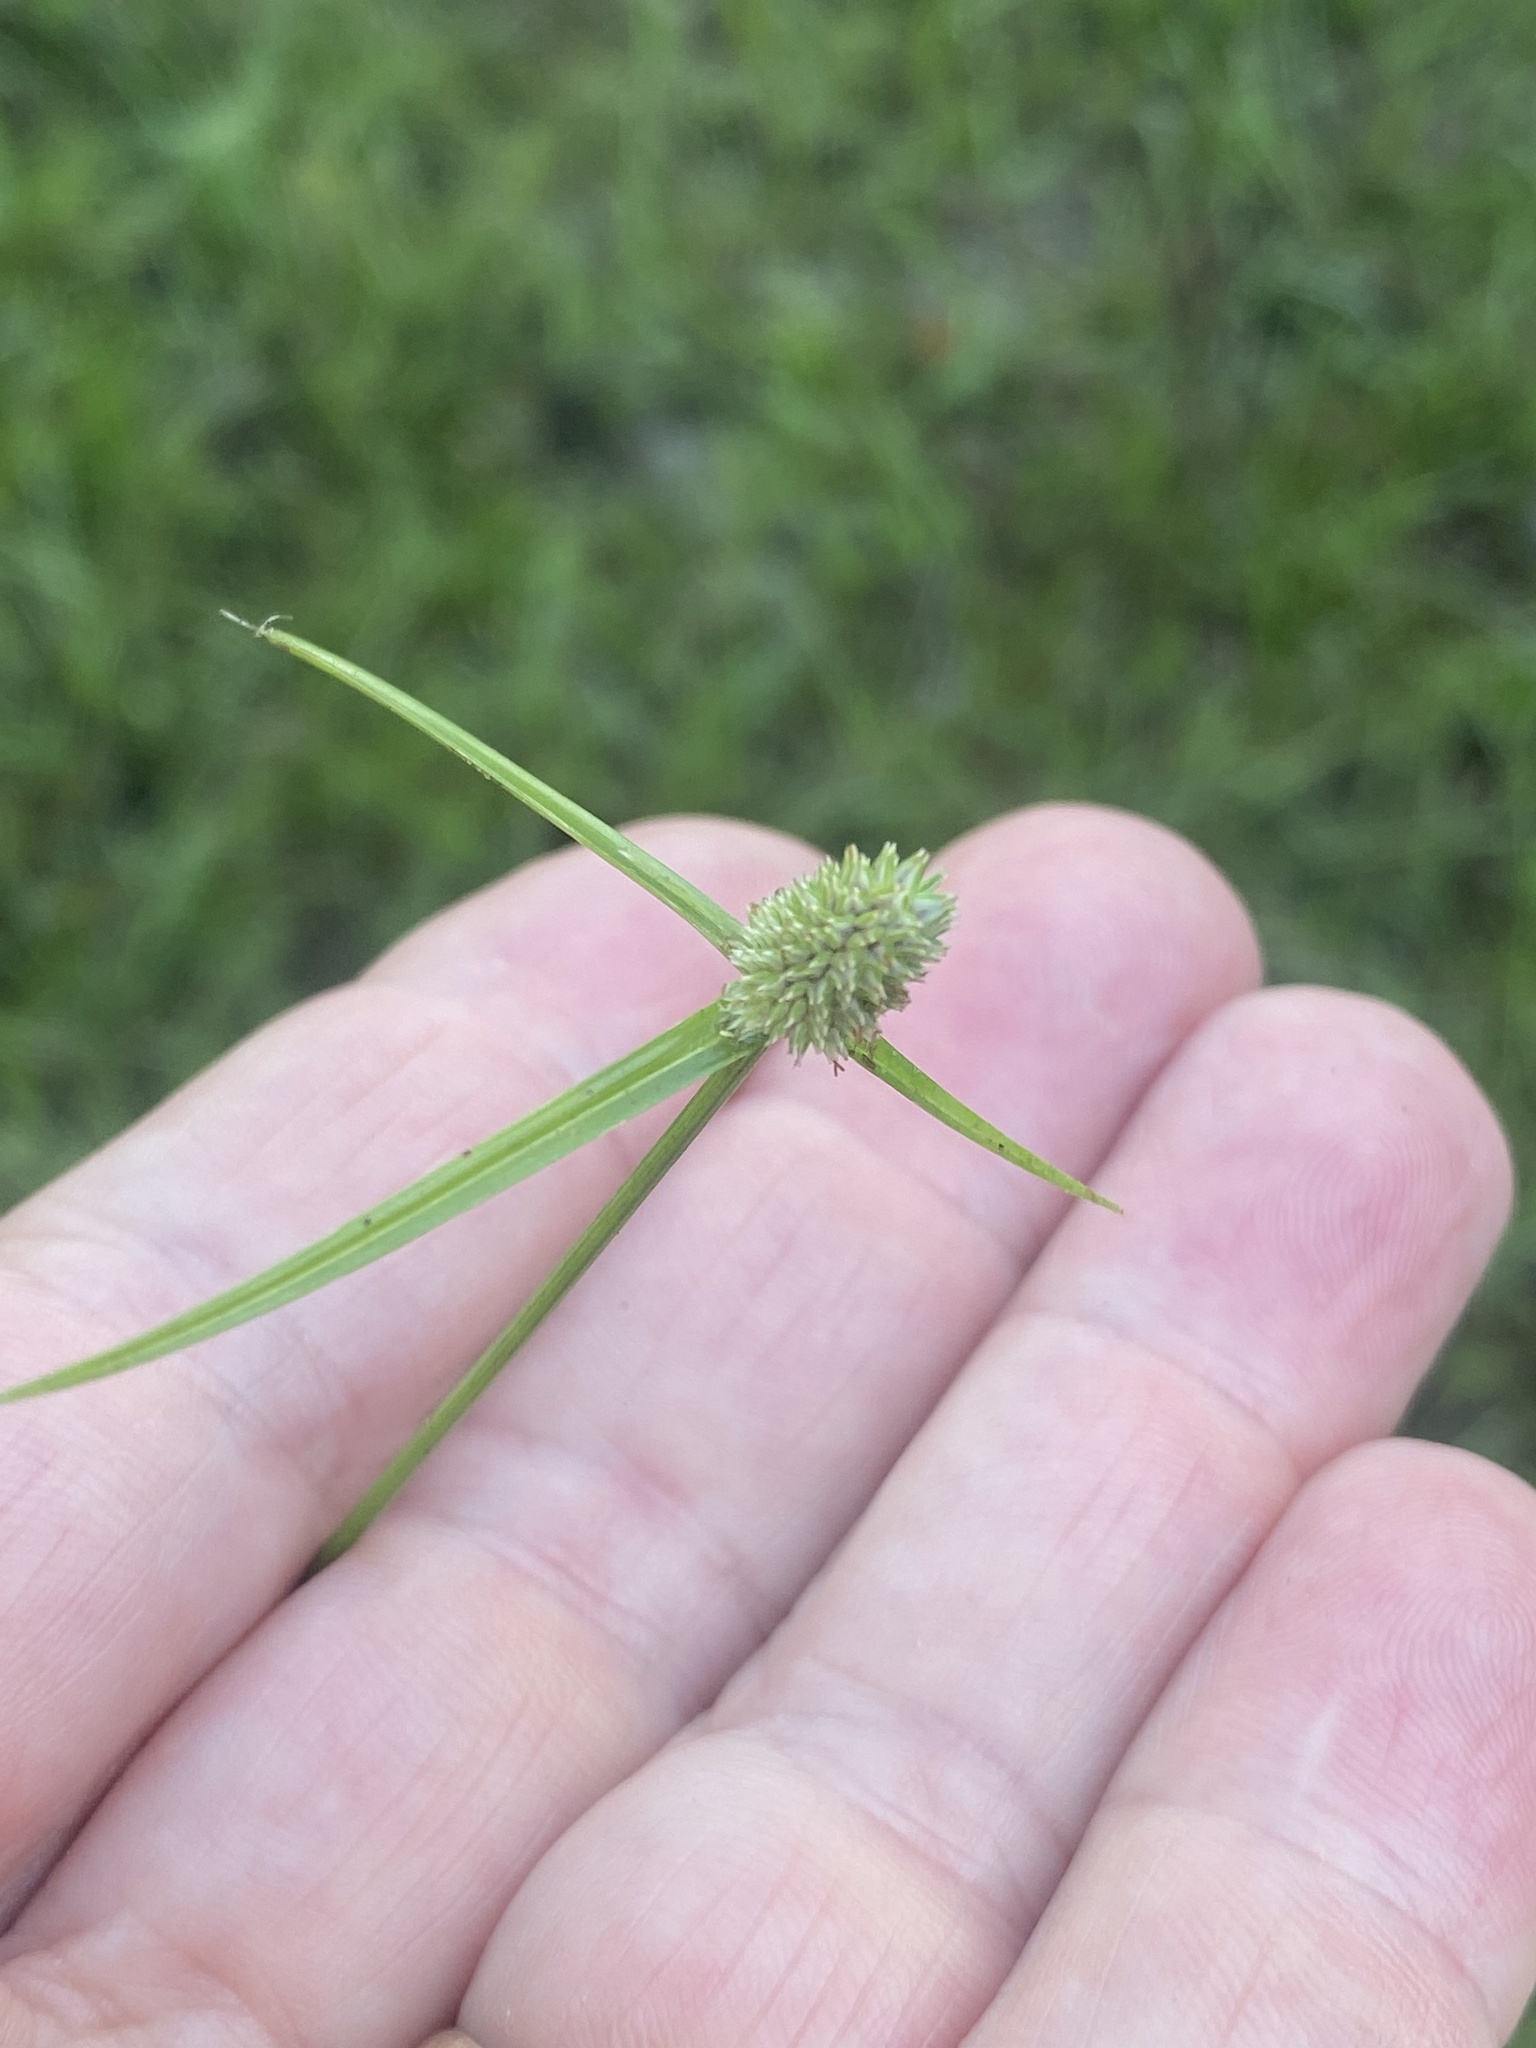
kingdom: Plantae
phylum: Tracheophyta
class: Liliopsida
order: Poales
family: Cyperaceae
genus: Cyperus
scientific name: Cyperus sesquiflorus
